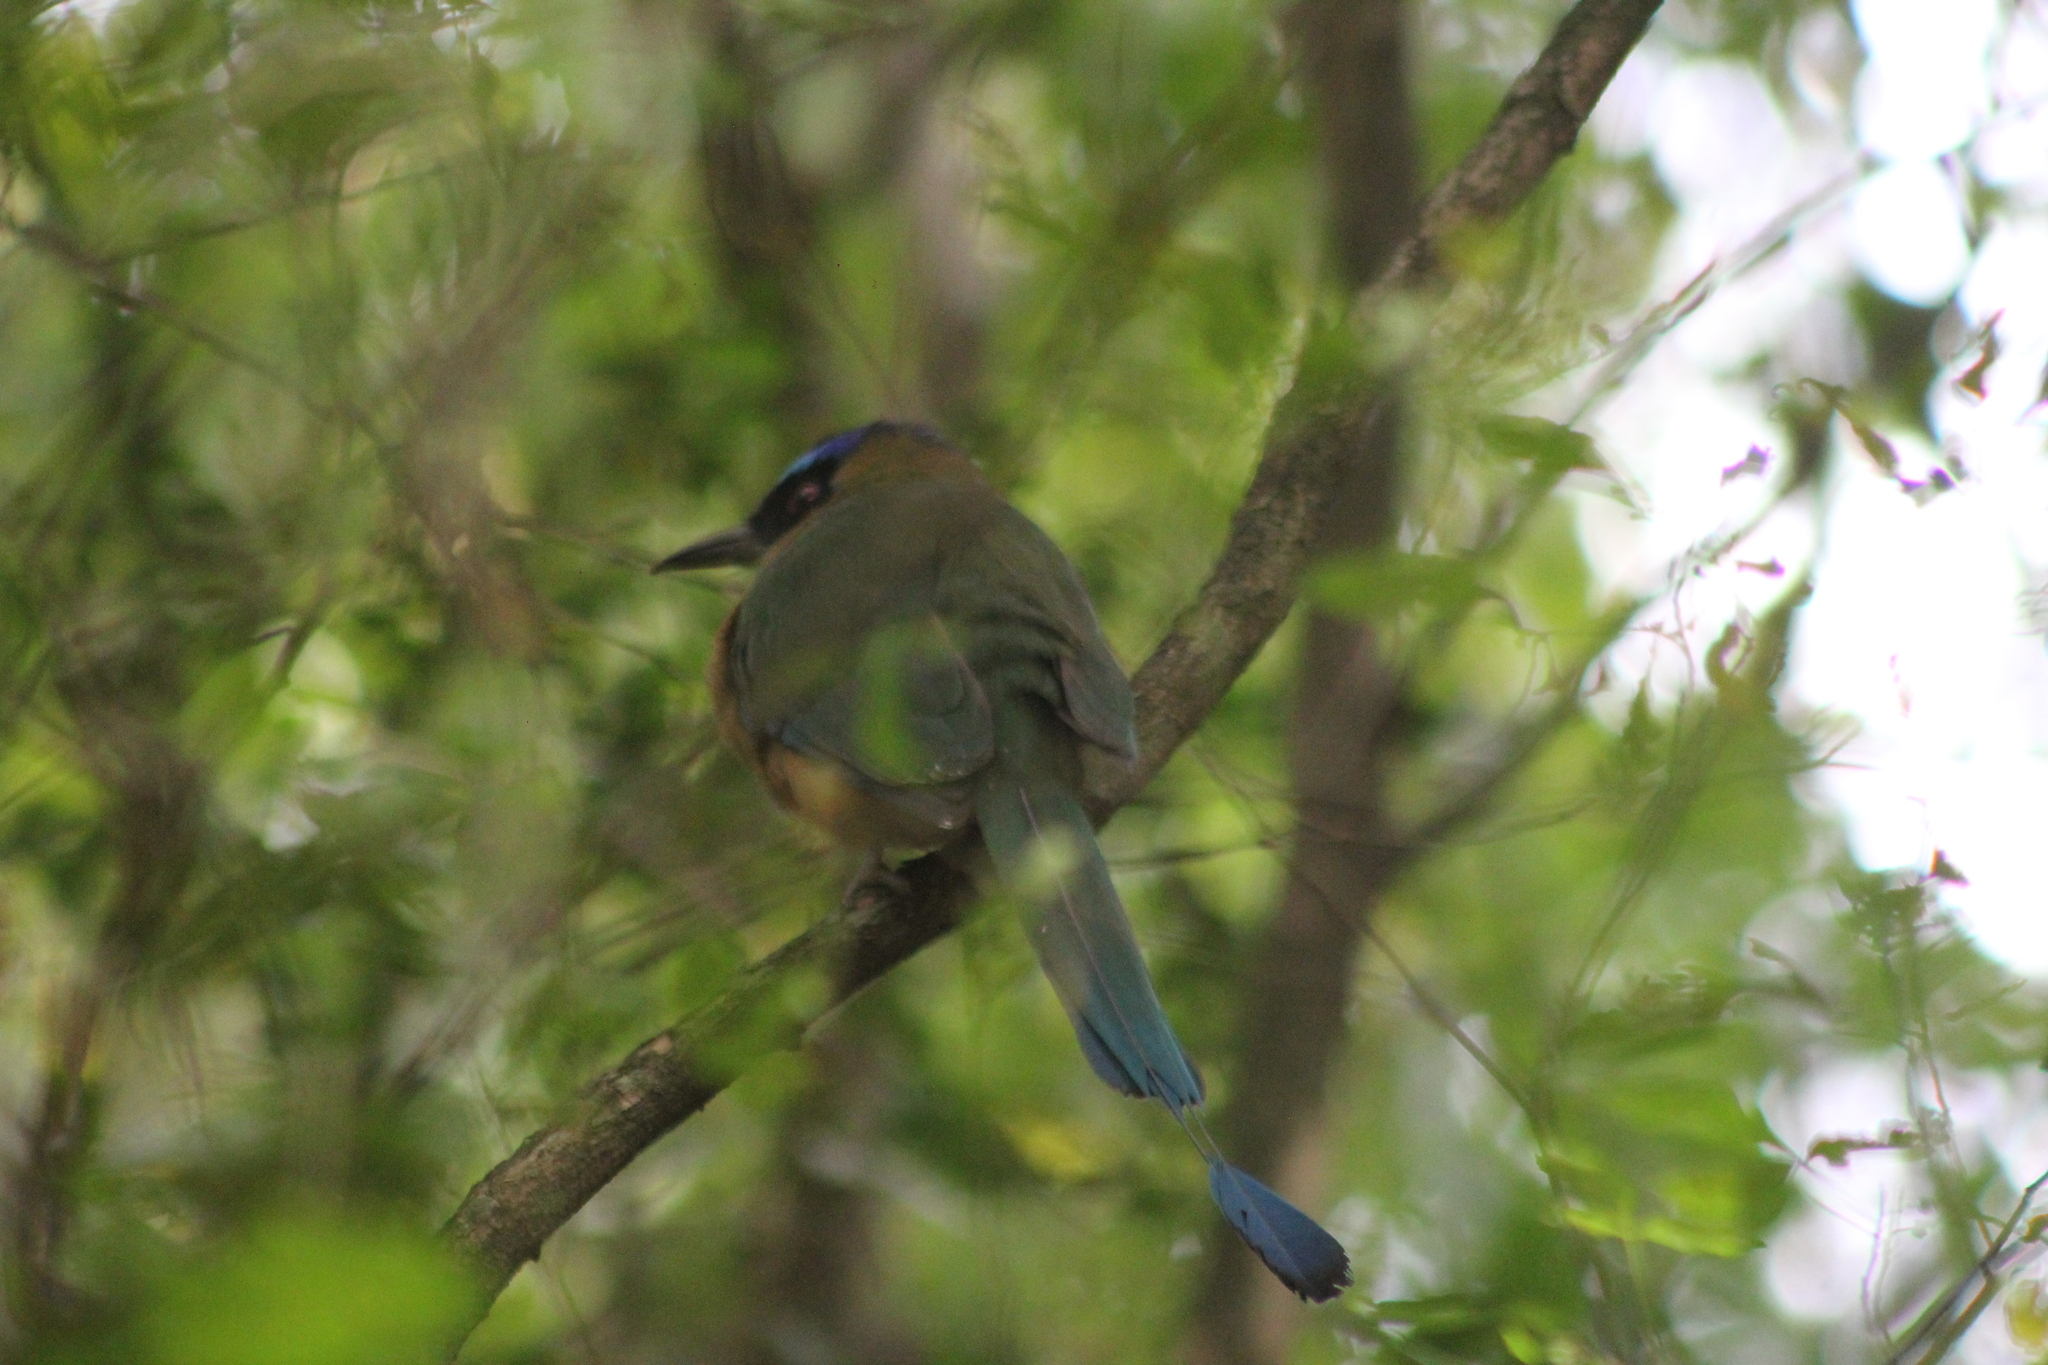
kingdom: Animalia
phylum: Chordata
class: Aves
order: Coraciiformes
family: Momotidae
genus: Momotus
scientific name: Momotus momota
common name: Amazonian motmot
